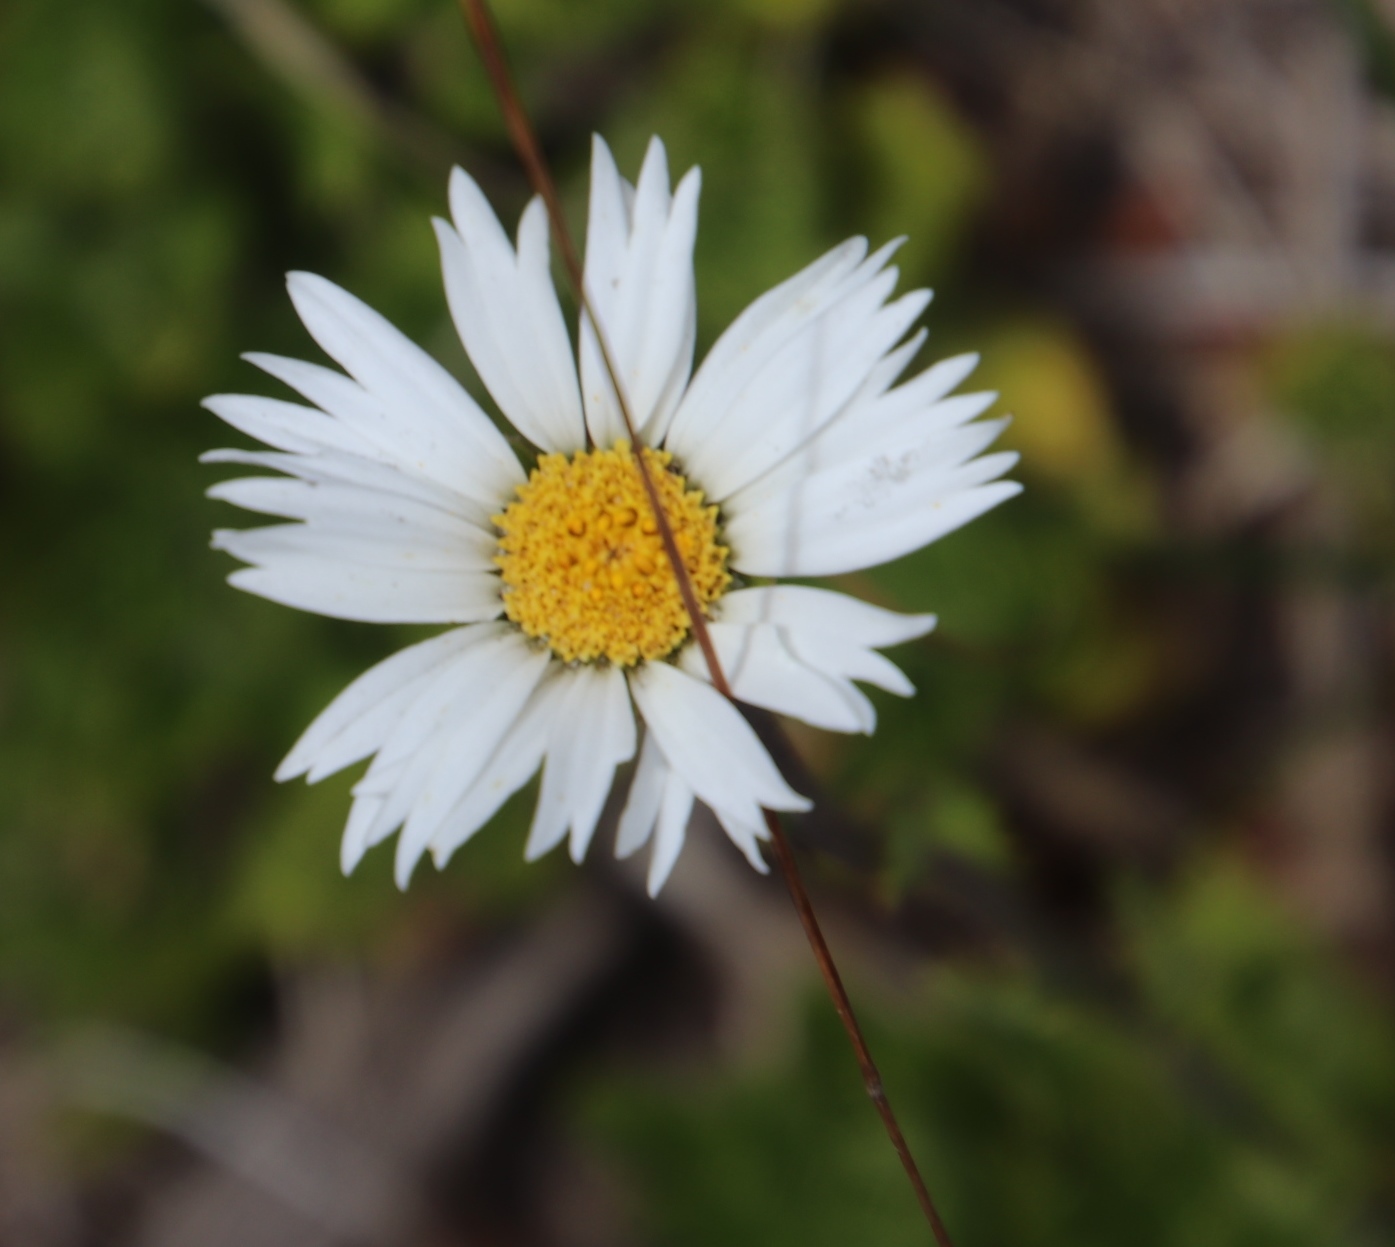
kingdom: Plantae
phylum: Tracheophyta
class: Magnoliopsida
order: Asterales
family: Asteraceae
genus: Osmitopsis
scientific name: Osmitopsis dentata
